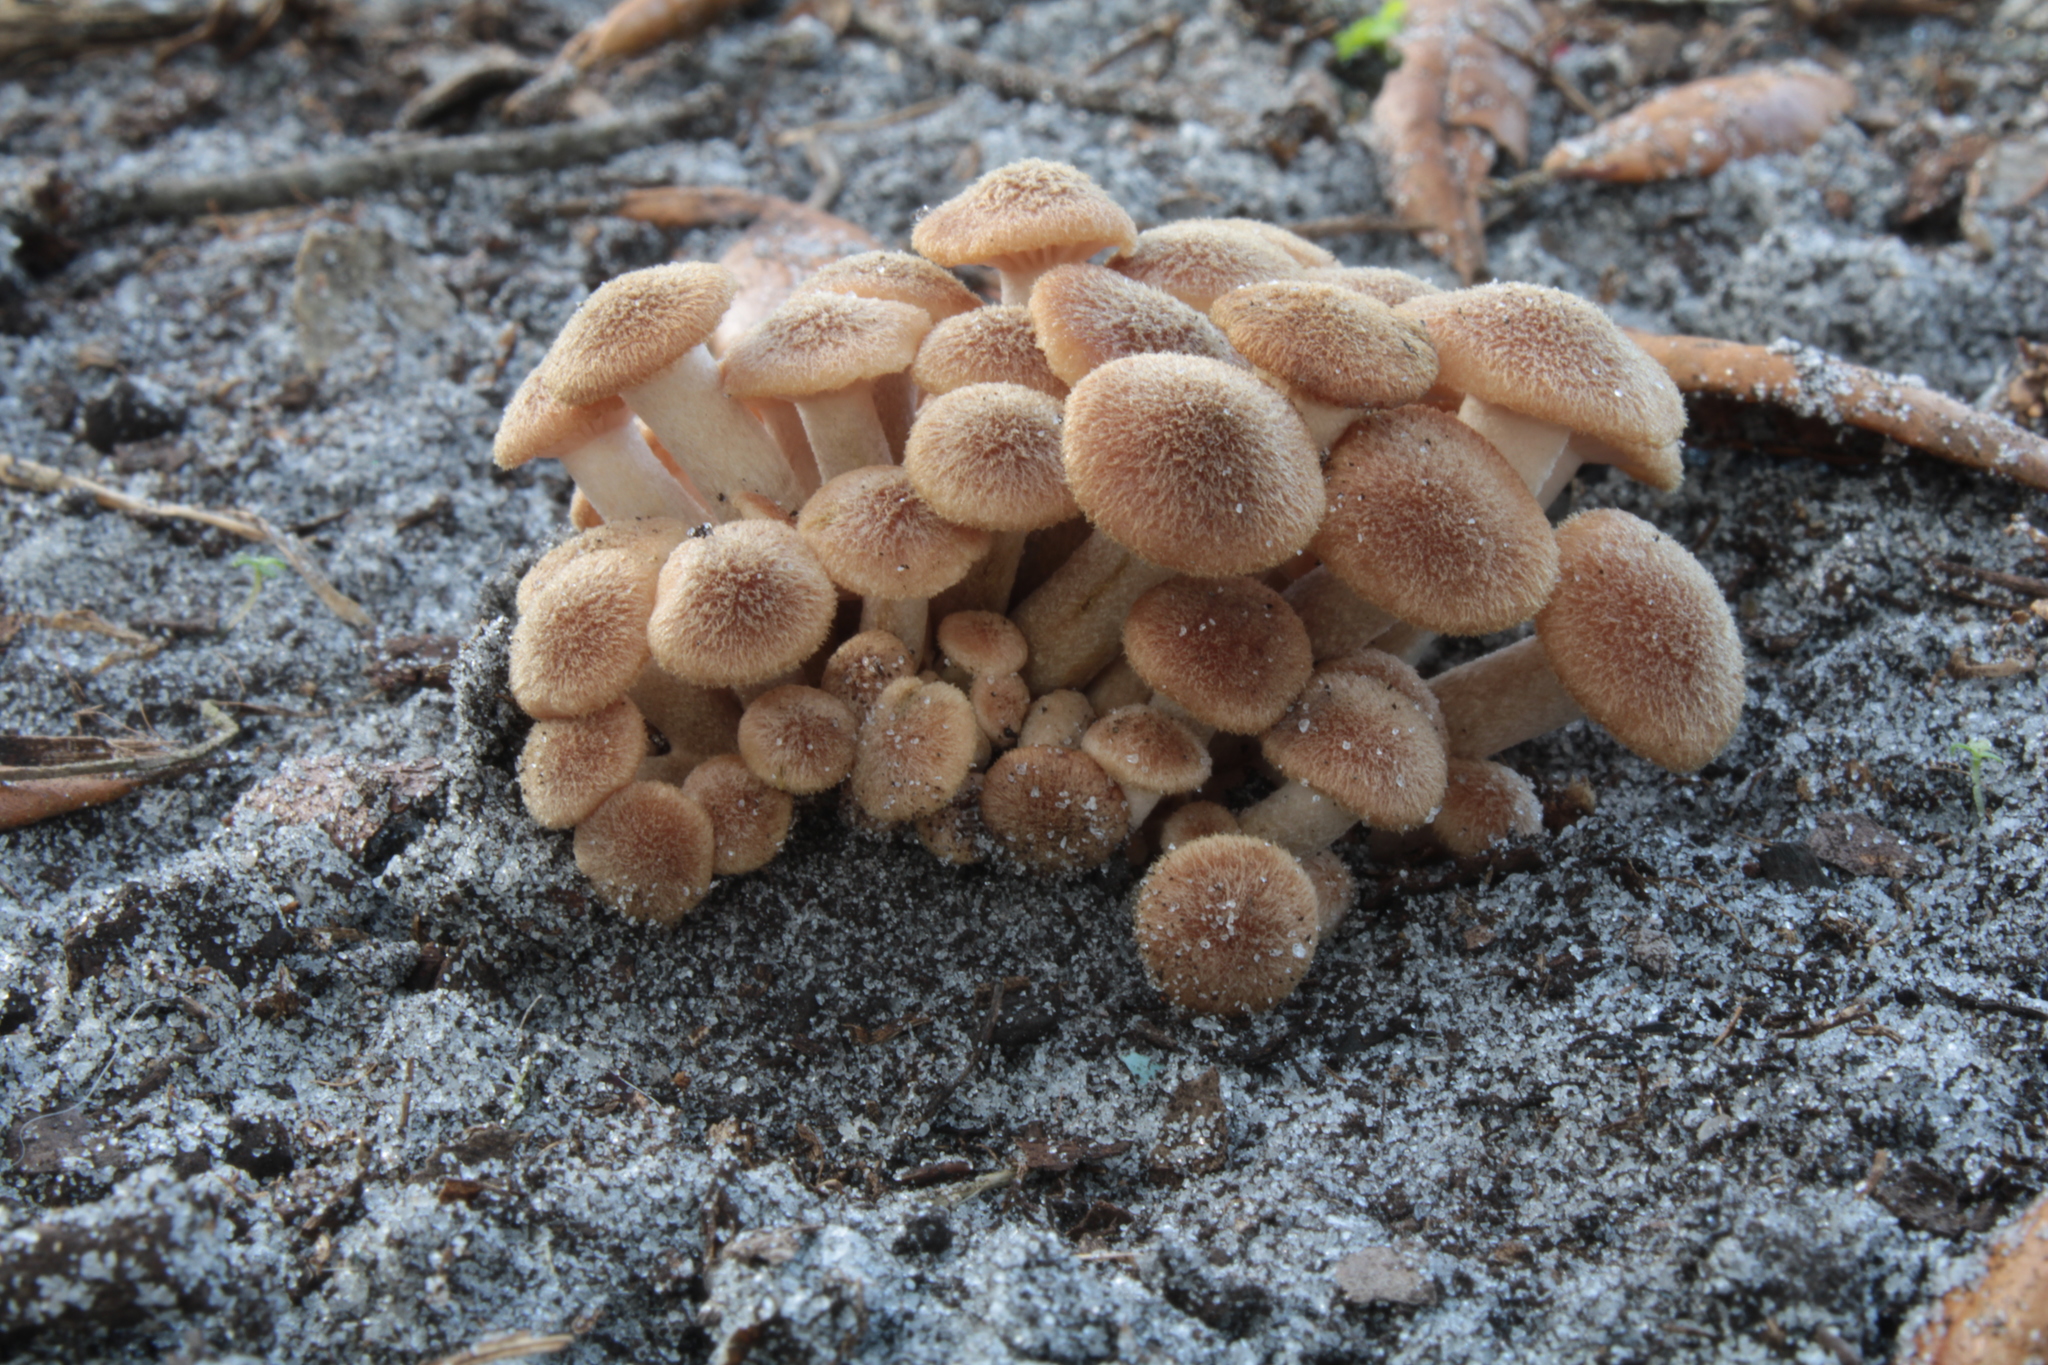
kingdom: Fungi
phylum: Basidiomycota
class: Agaricomycetes
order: Agaricales
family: Physalacriaceae
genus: Desarmillaria
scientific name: Desarmillaria caespitosa
